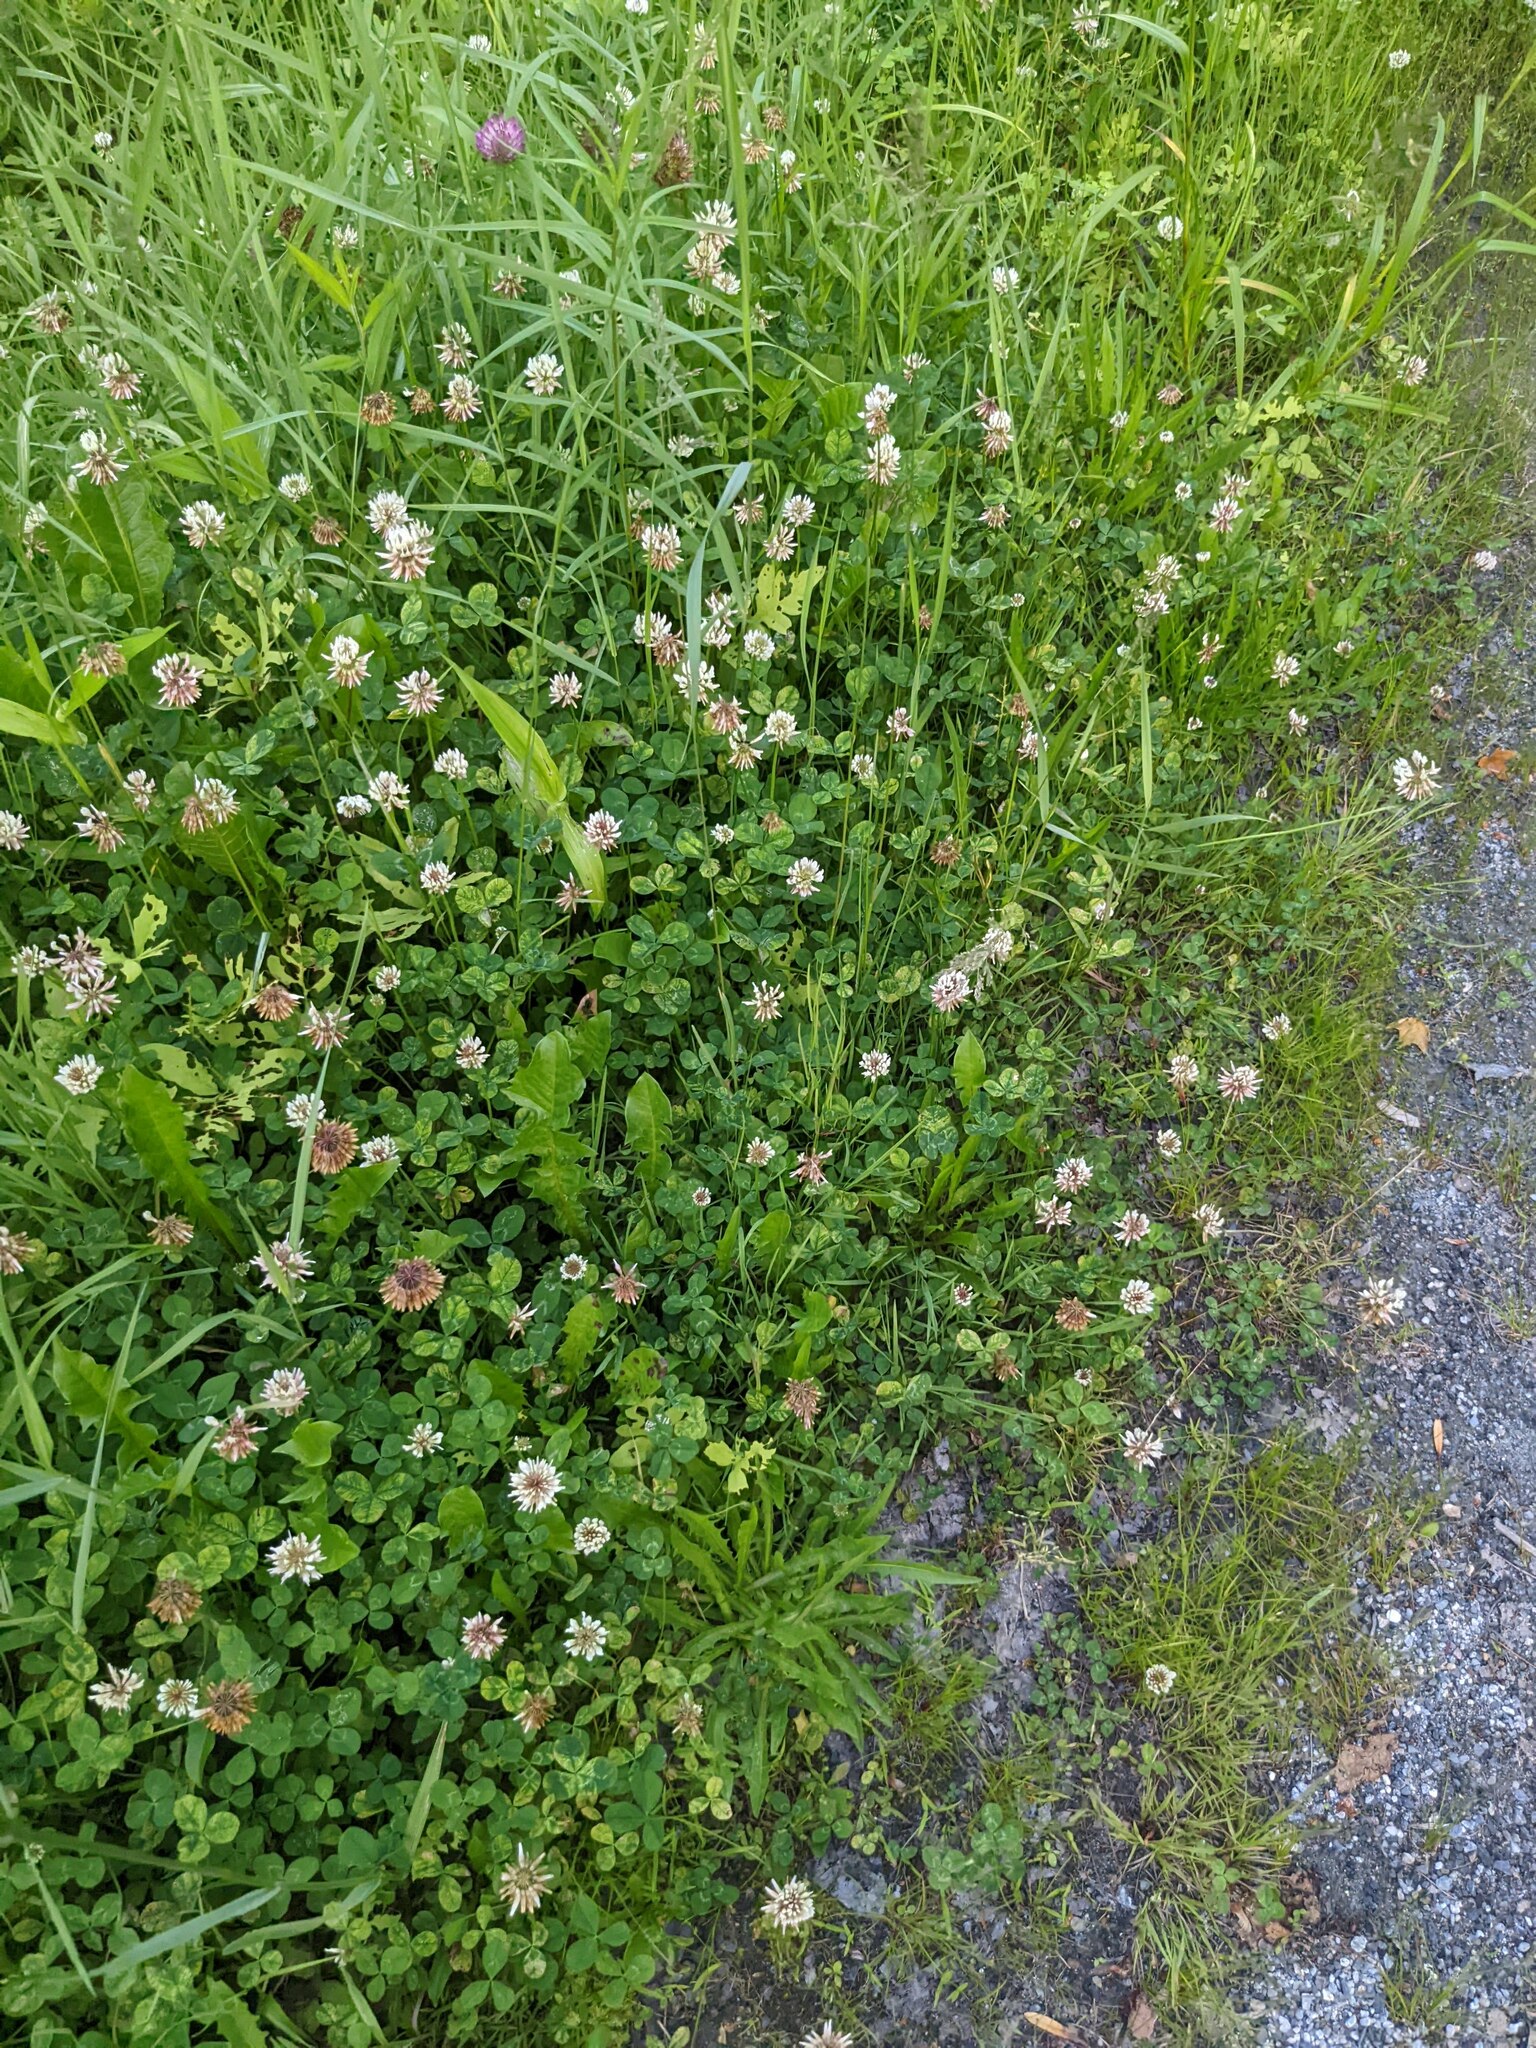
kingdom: Plantae
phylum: Tracheophyta
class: Magnoliopsida
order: Fabales
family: Fabaceae
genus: Trifolium
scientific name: Trifolium repens
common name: White clover
